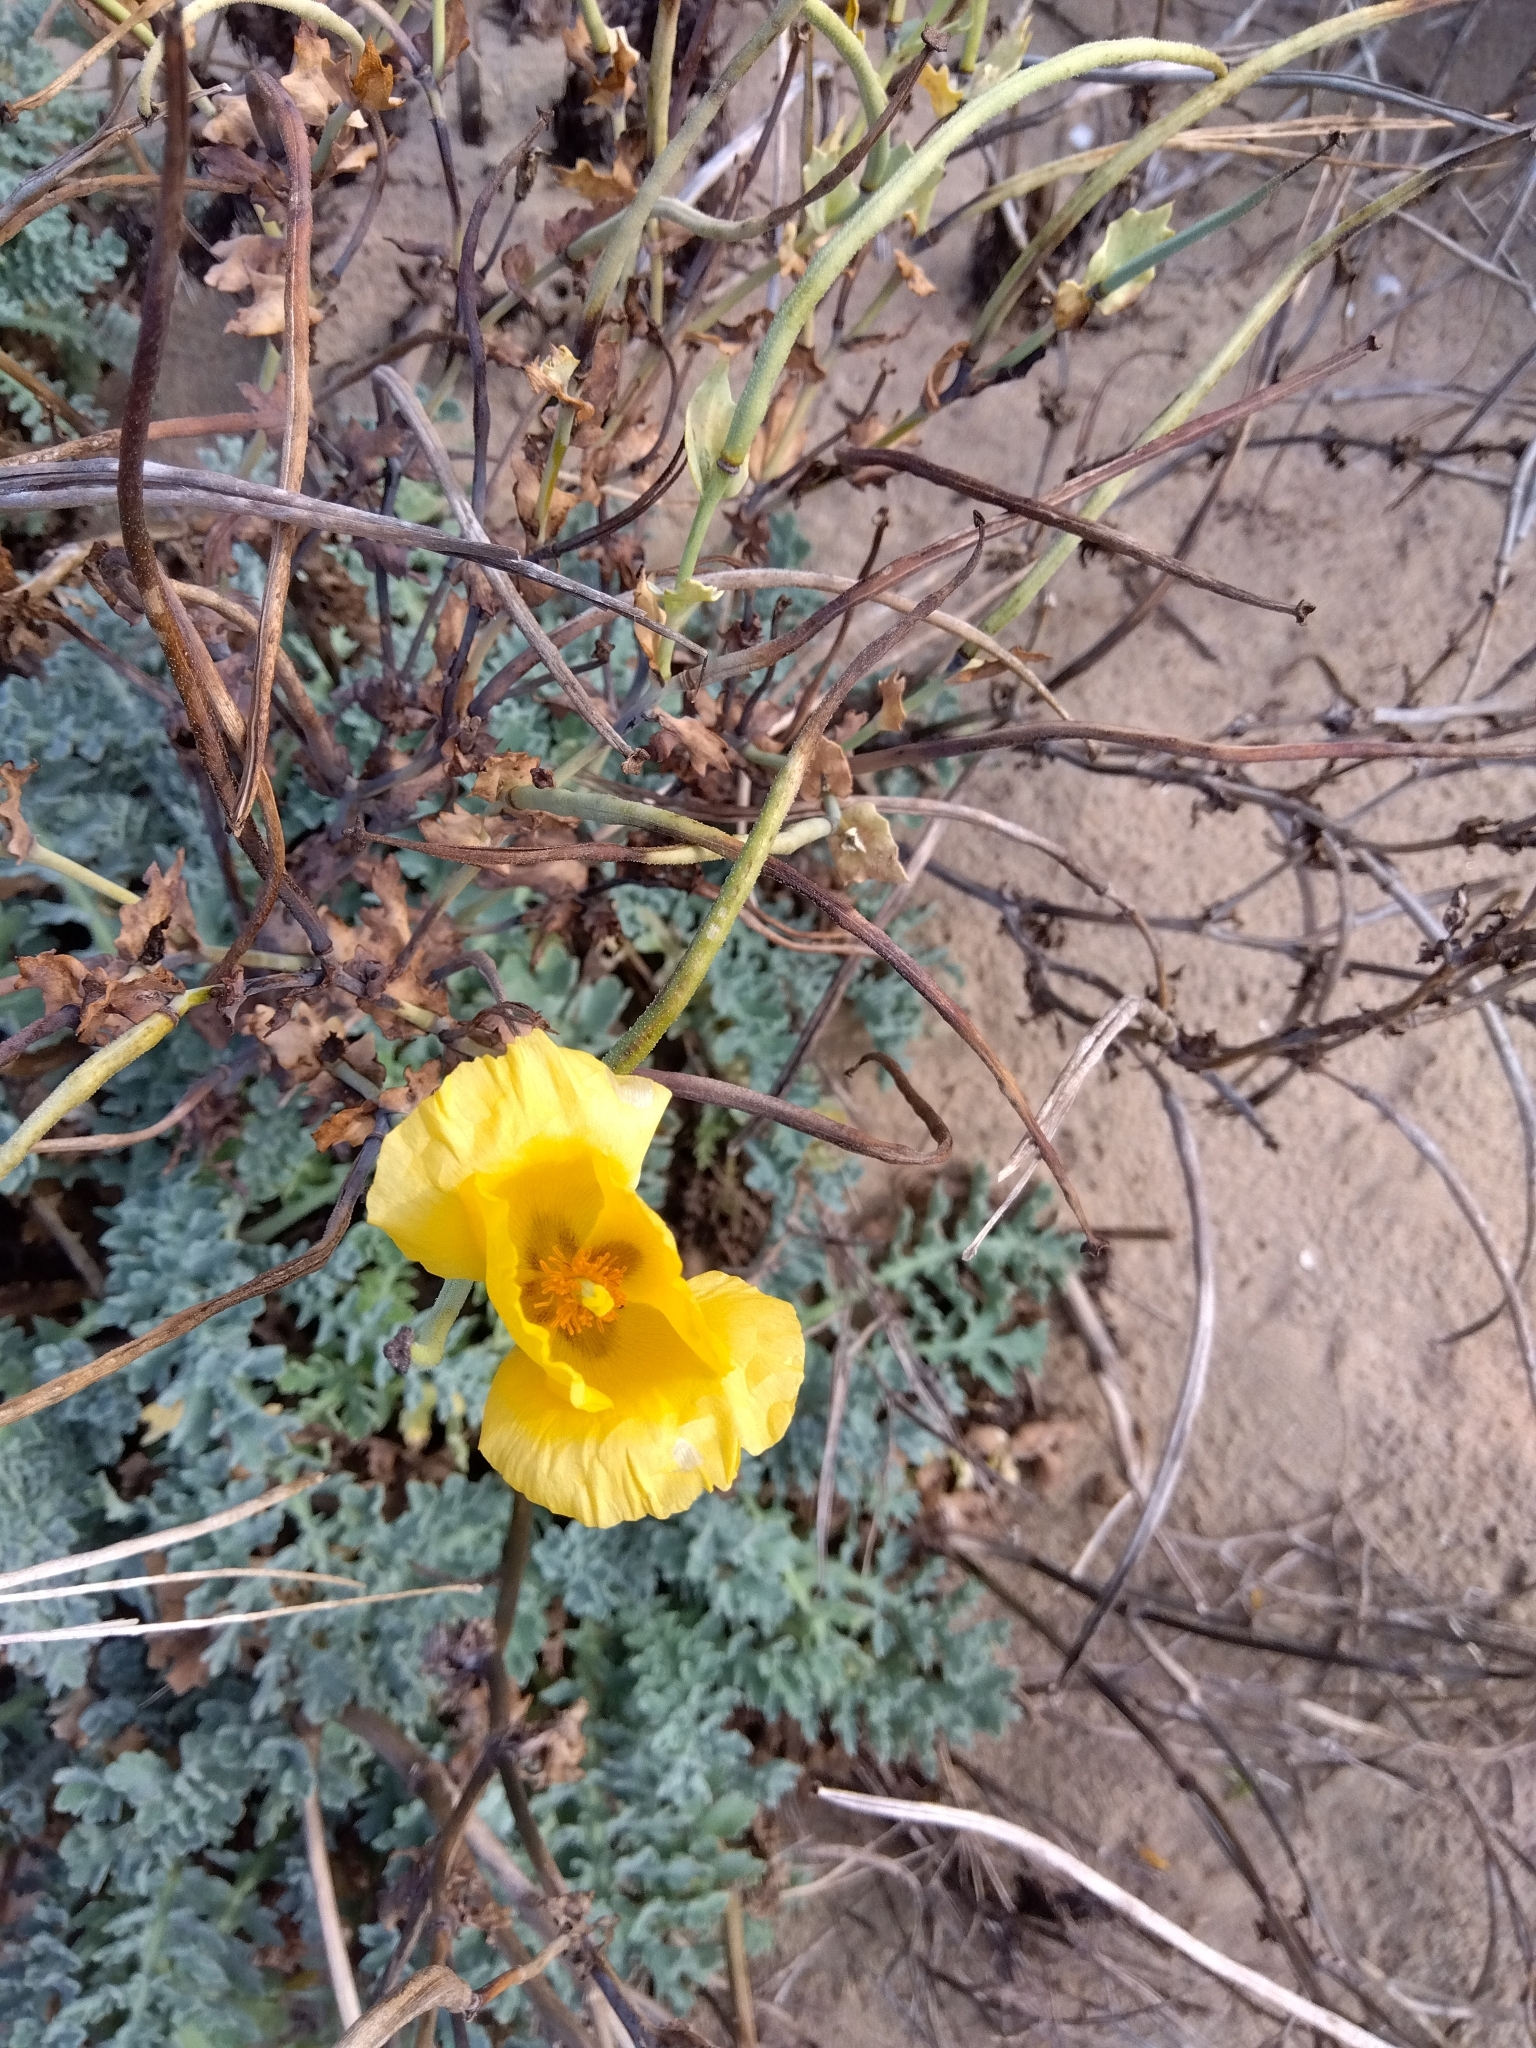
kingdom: Plantae
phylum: Tracheophyta
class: Magnoliopsida
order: Ranunculales
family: Papaveraceae
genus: Glaucium
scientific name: Glaucium flavum
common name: Yellow horned-poppy
